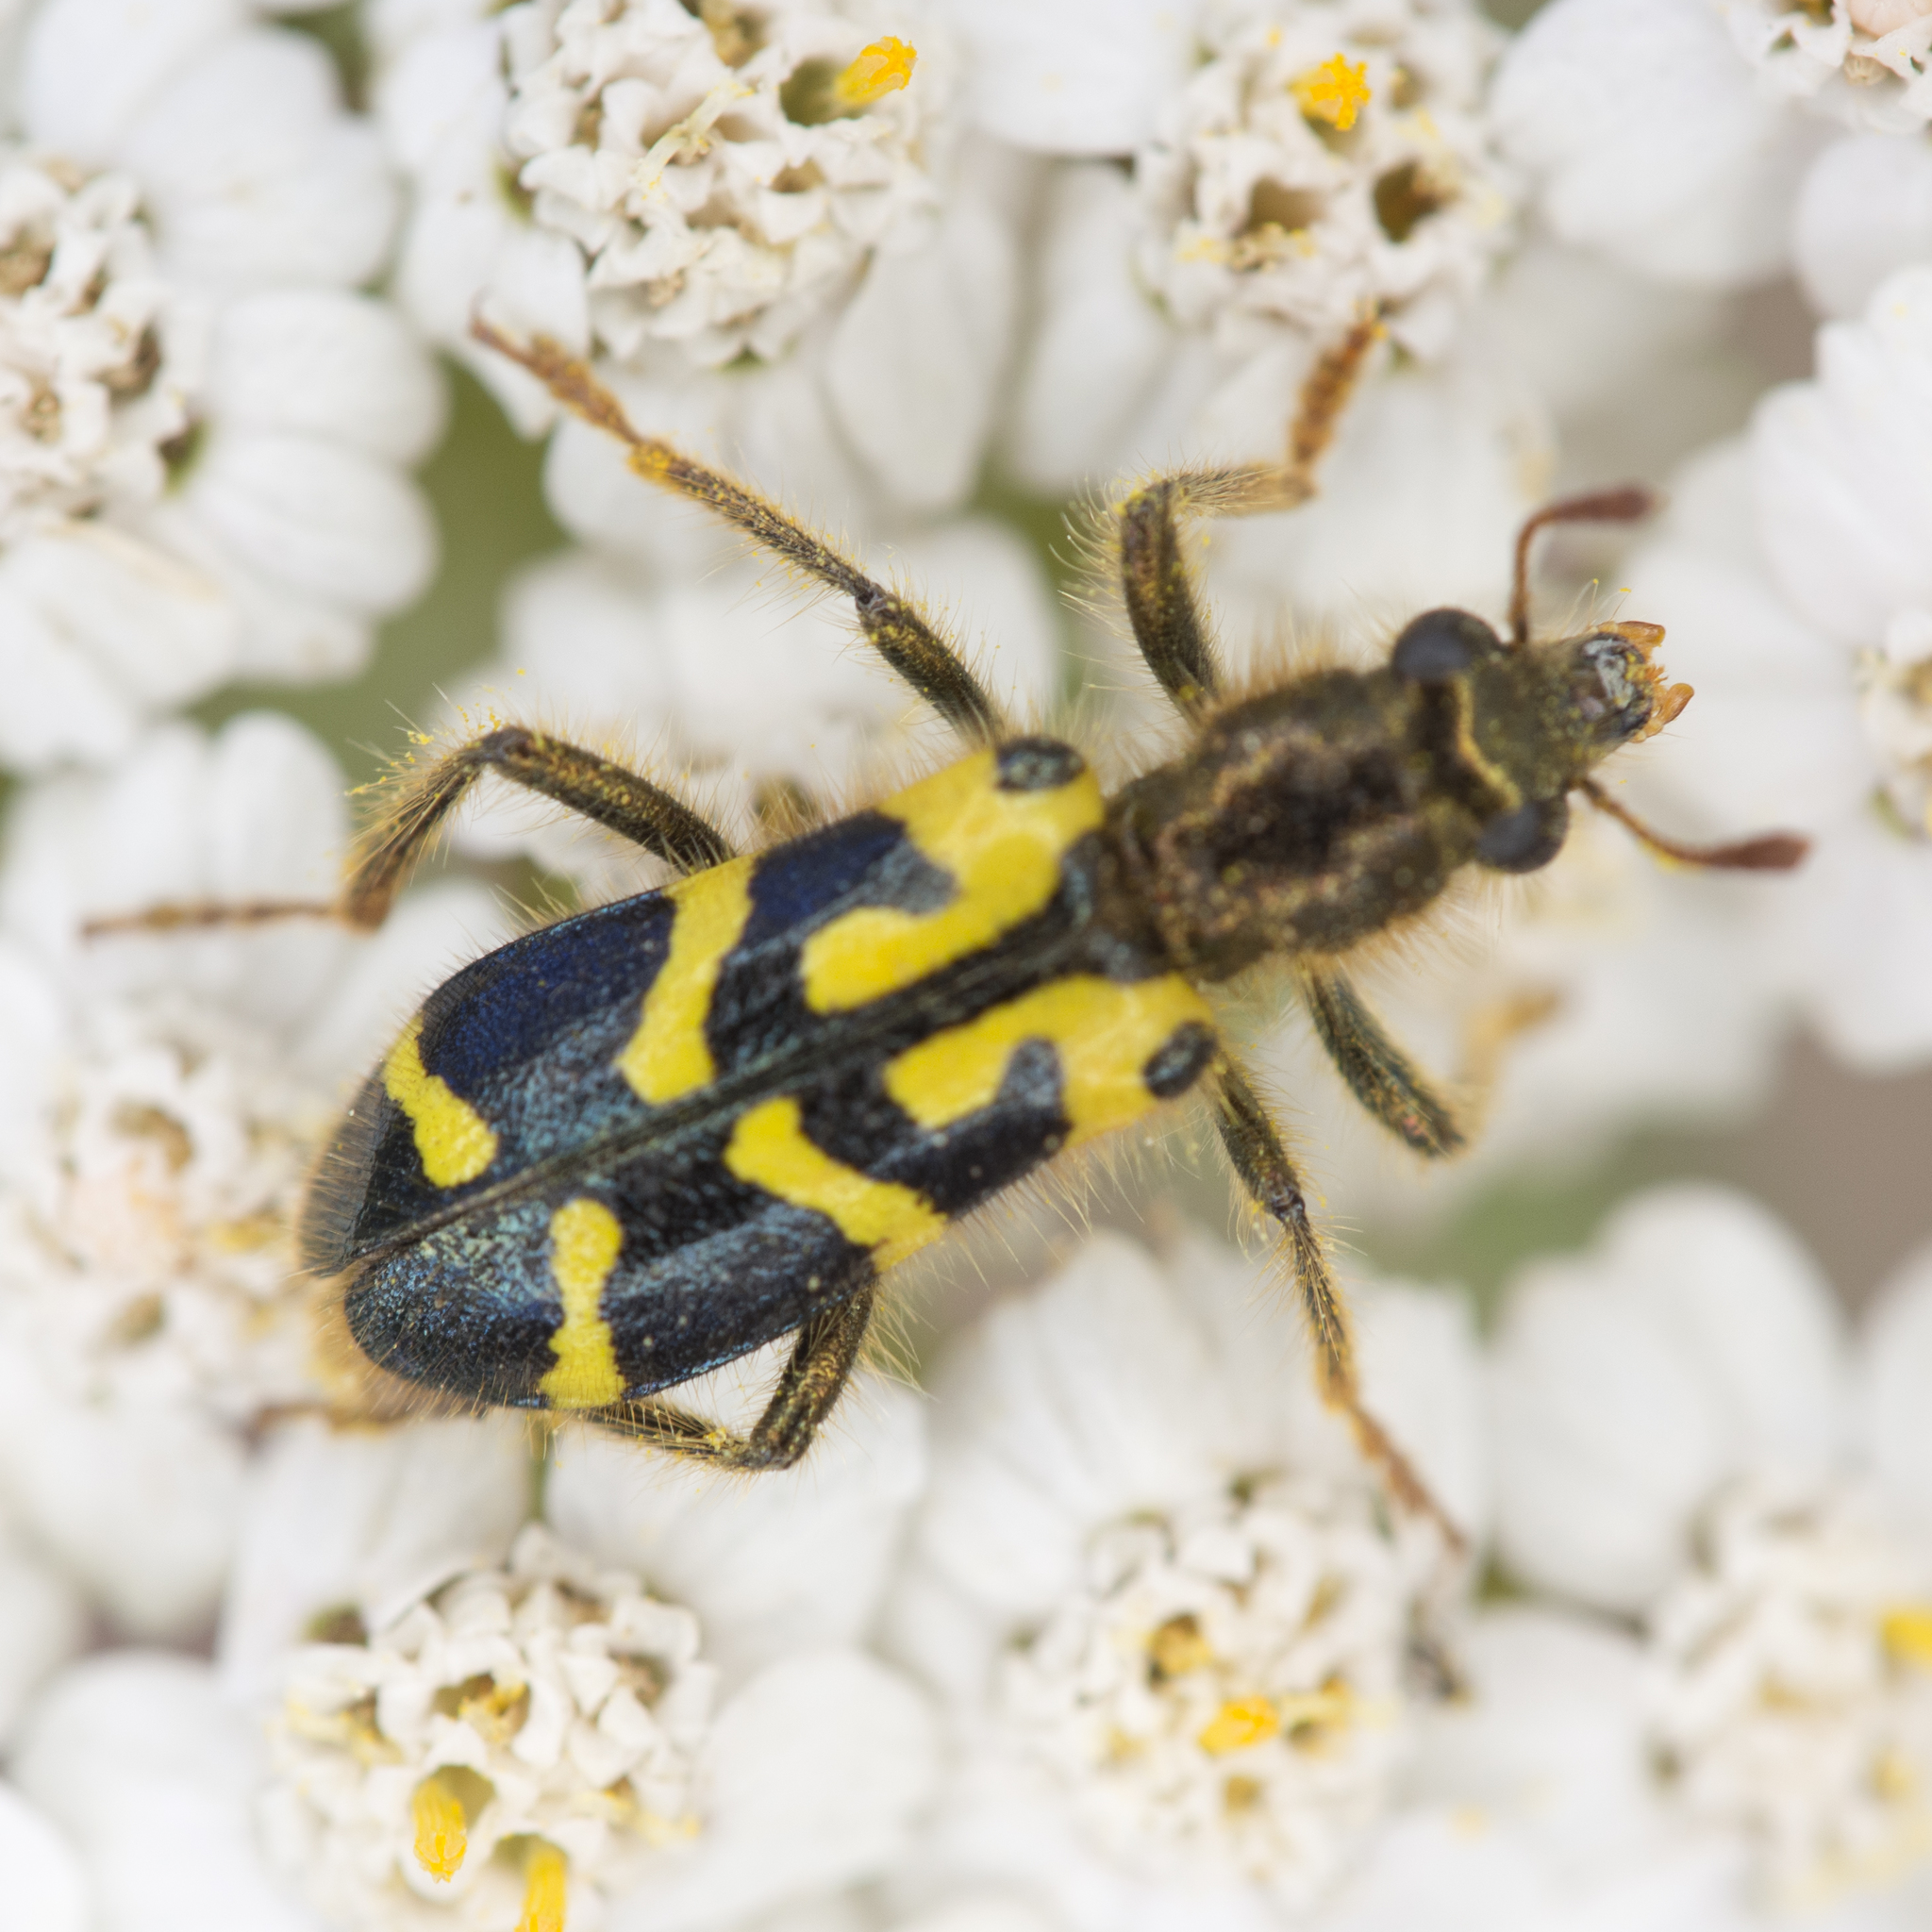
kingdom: Animalia
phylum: Arthropoda
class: Insecta
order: Coleoptera
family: Cleridae
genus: Trichodes
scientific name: Trichodes ornatus
